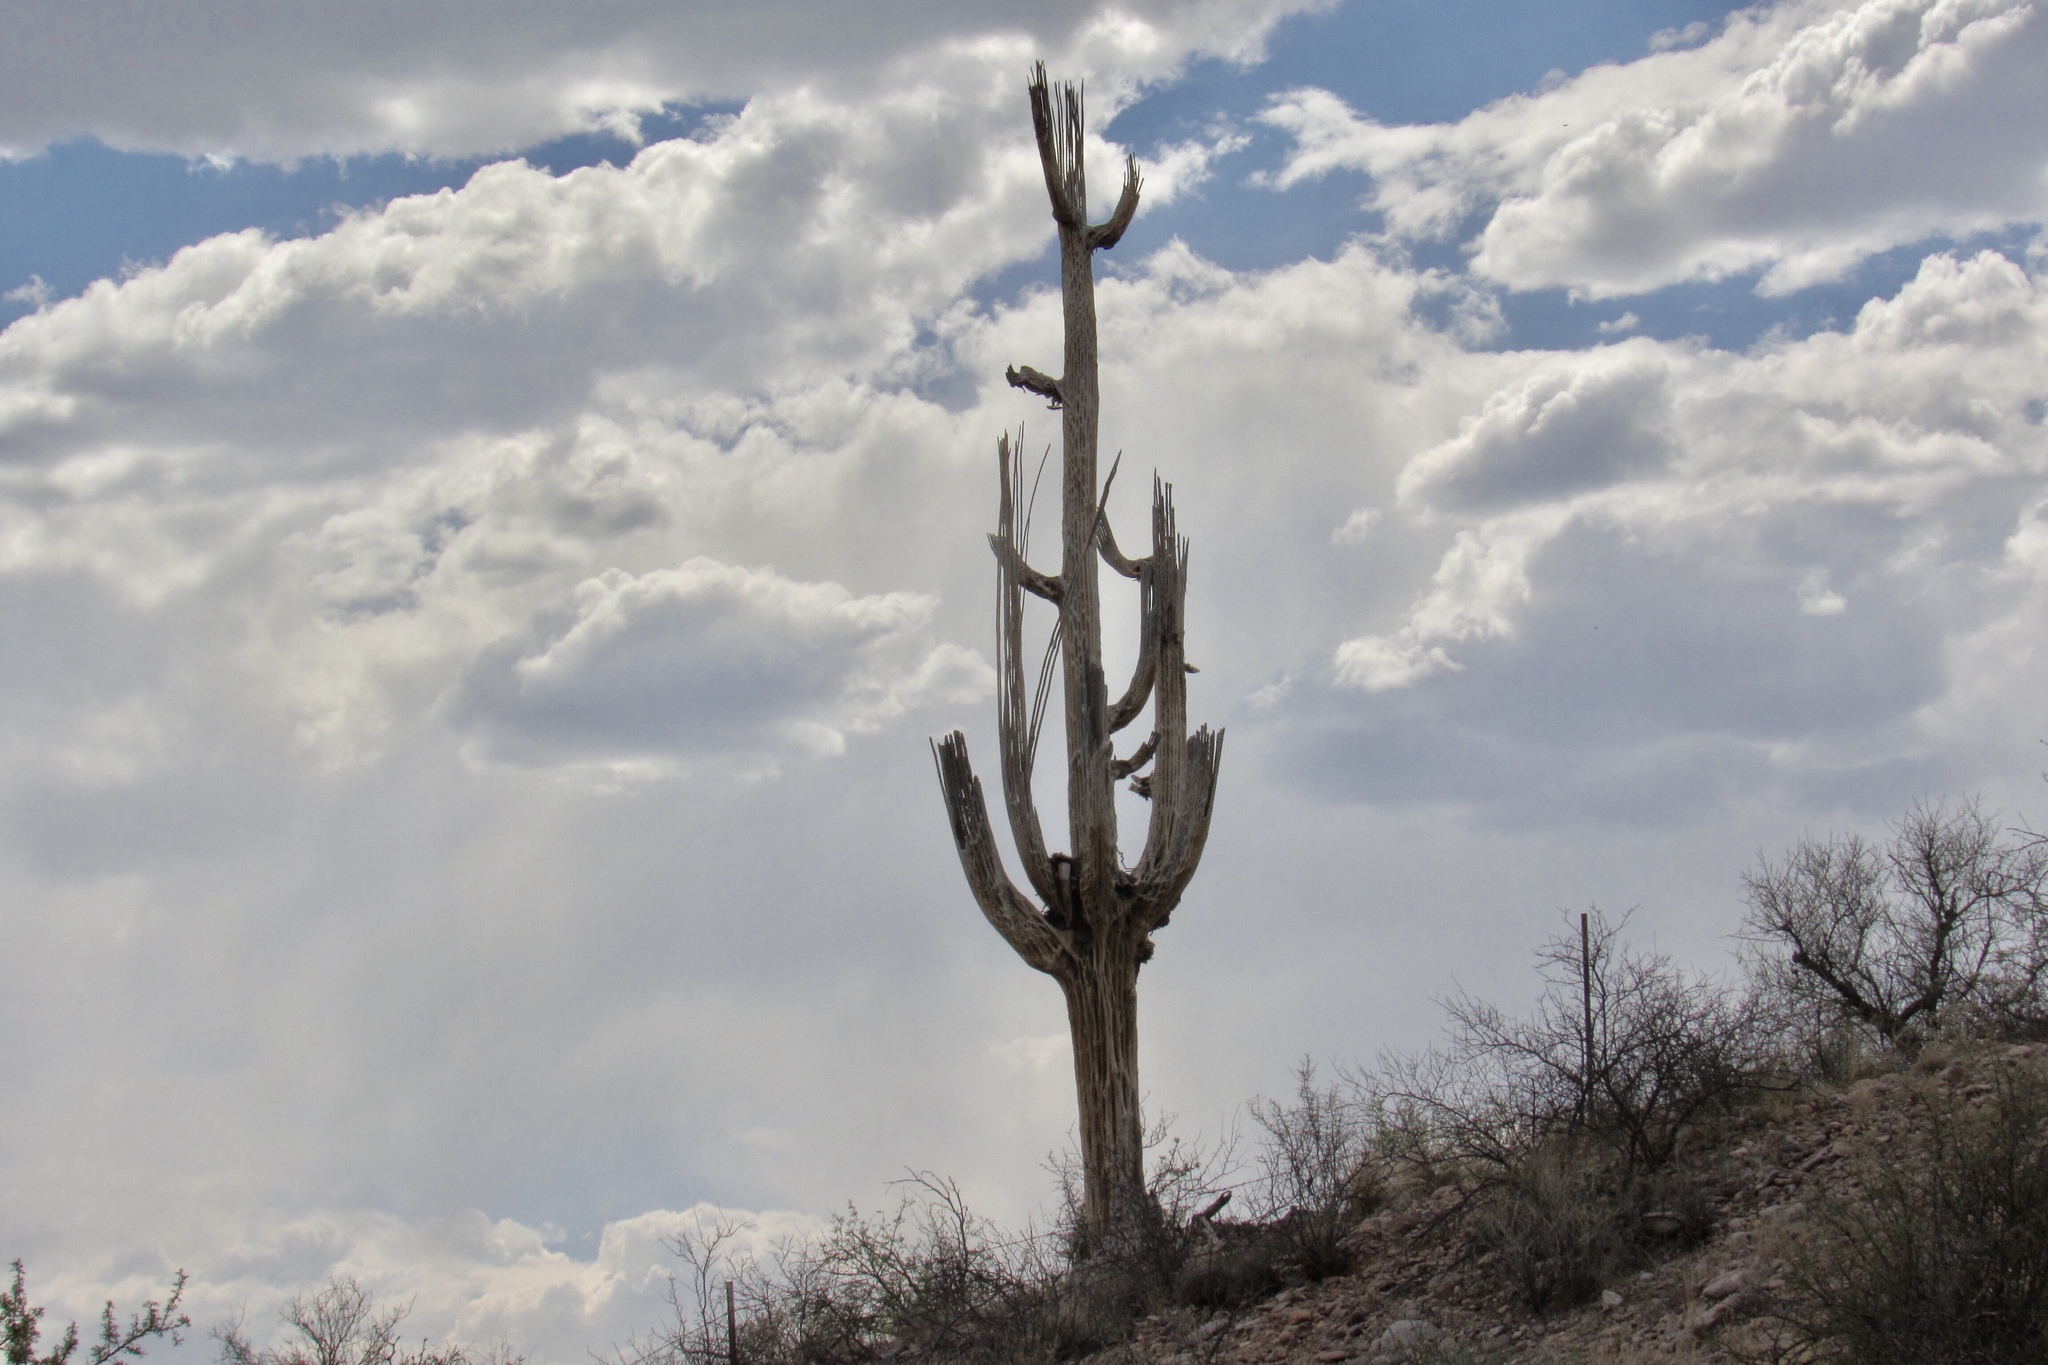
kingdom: Plantae
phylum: Tracheophyta
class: Magnoliopsida
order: Caryophyllales
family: Cactaceae
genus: Carnegiea
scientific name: Carnegiea gigantea
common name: Saguaro
